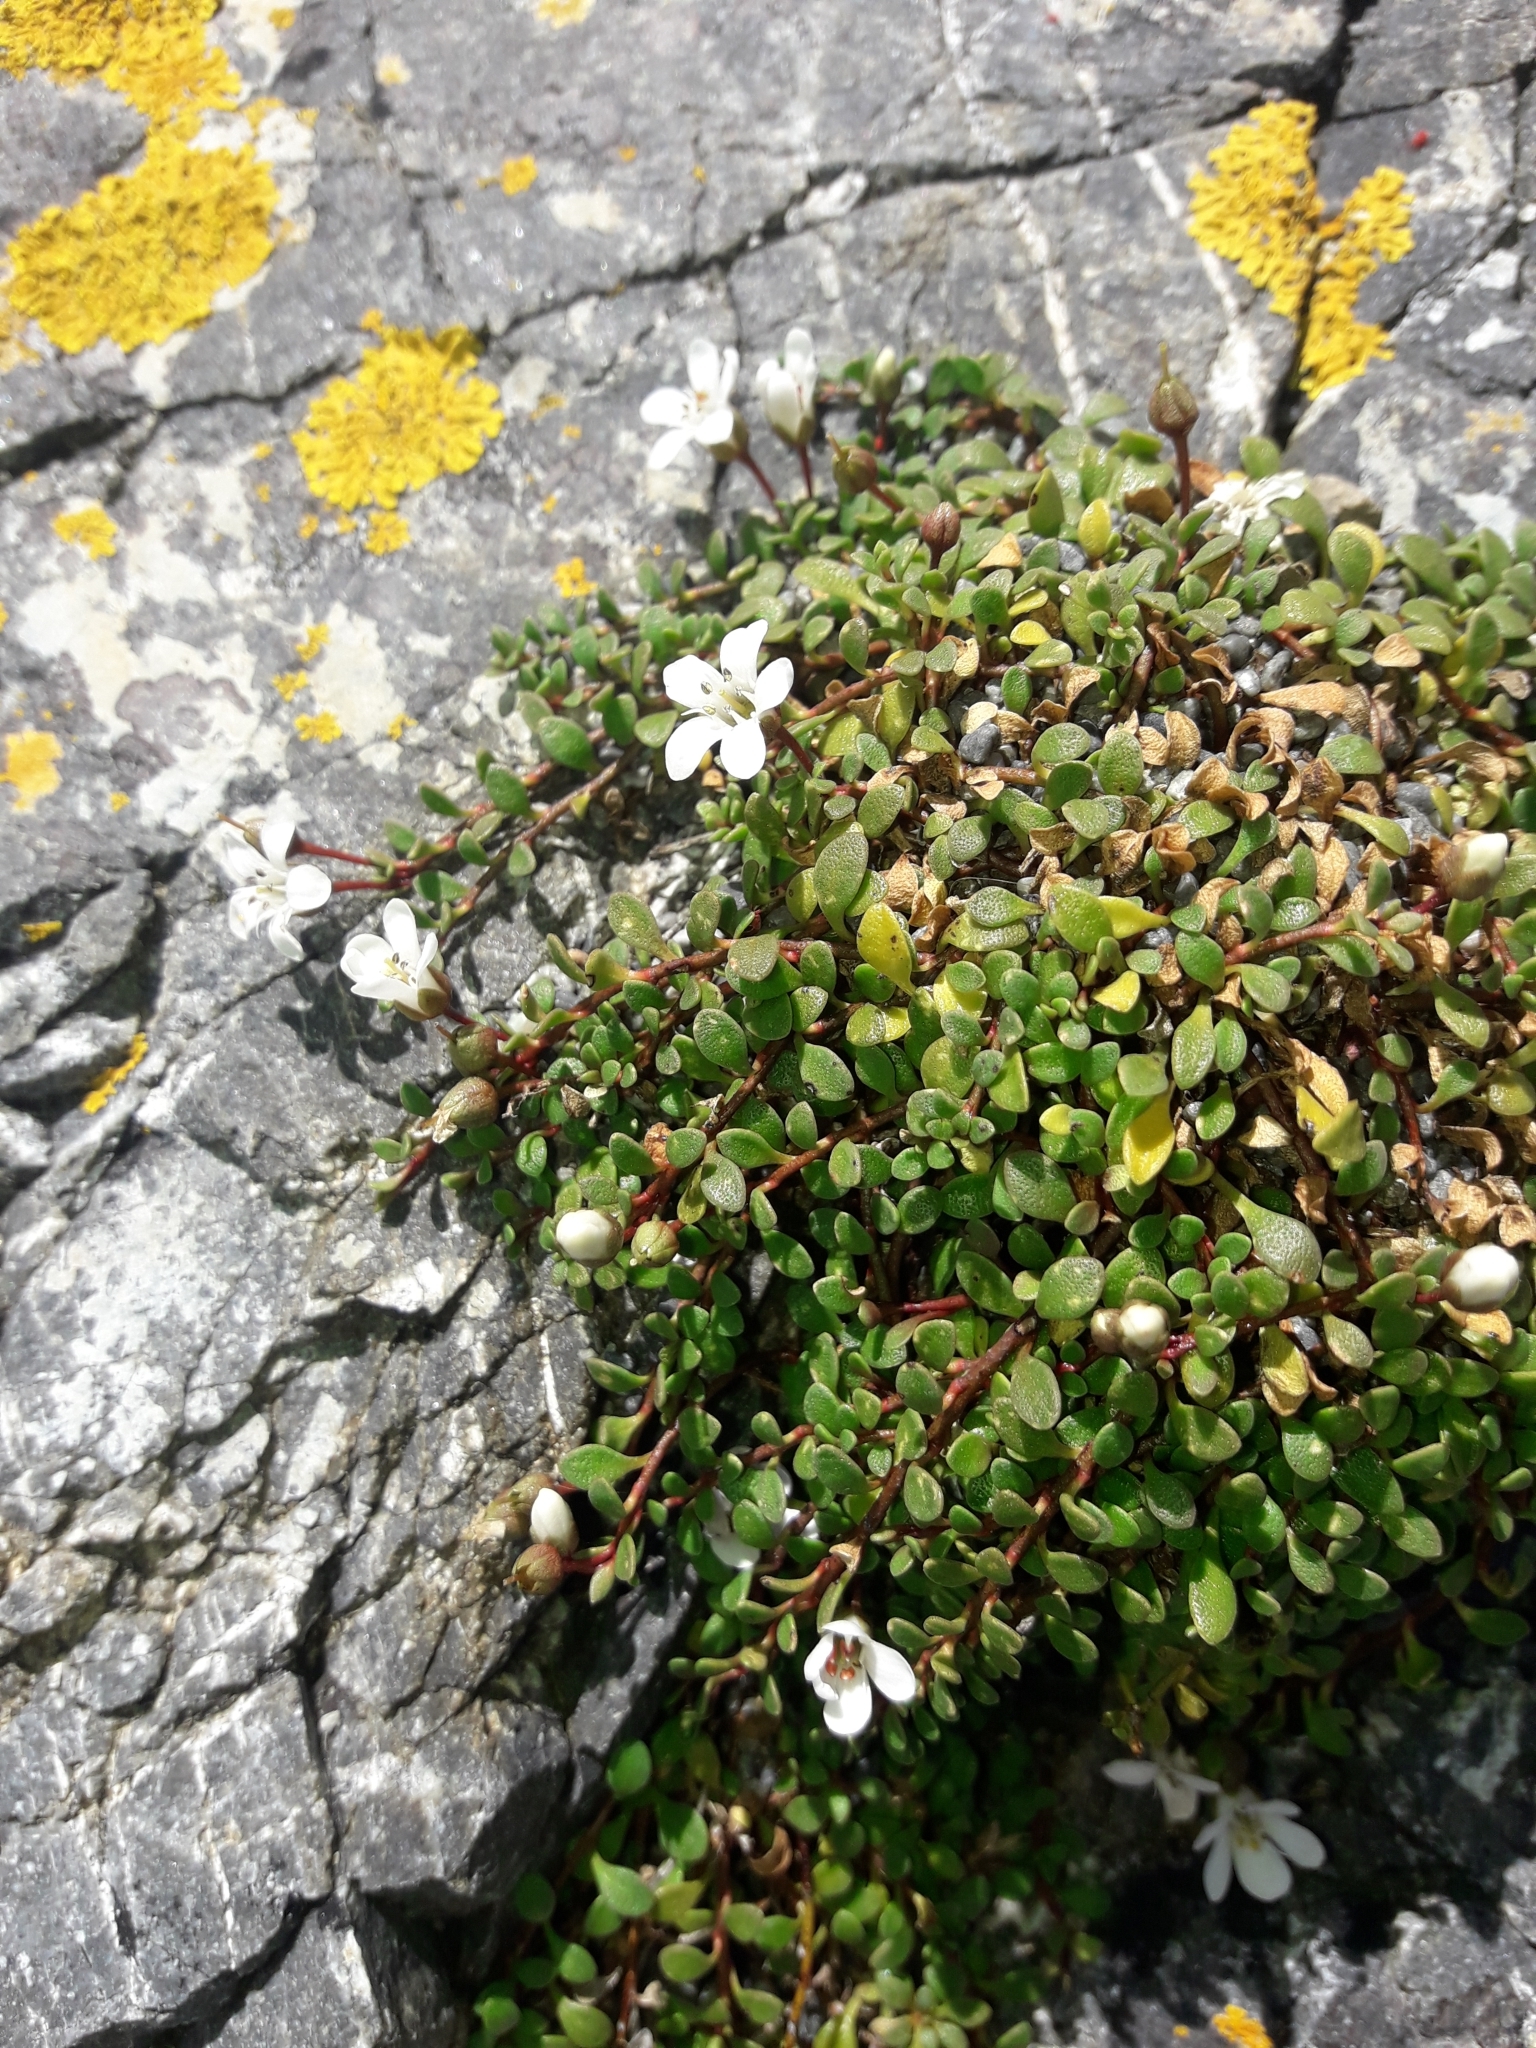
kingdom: Plantae
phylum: Tracheophyta
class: Magnoliopsida
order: Ericales
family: Primulaceae
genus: Samolus
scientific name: Samolus repens
